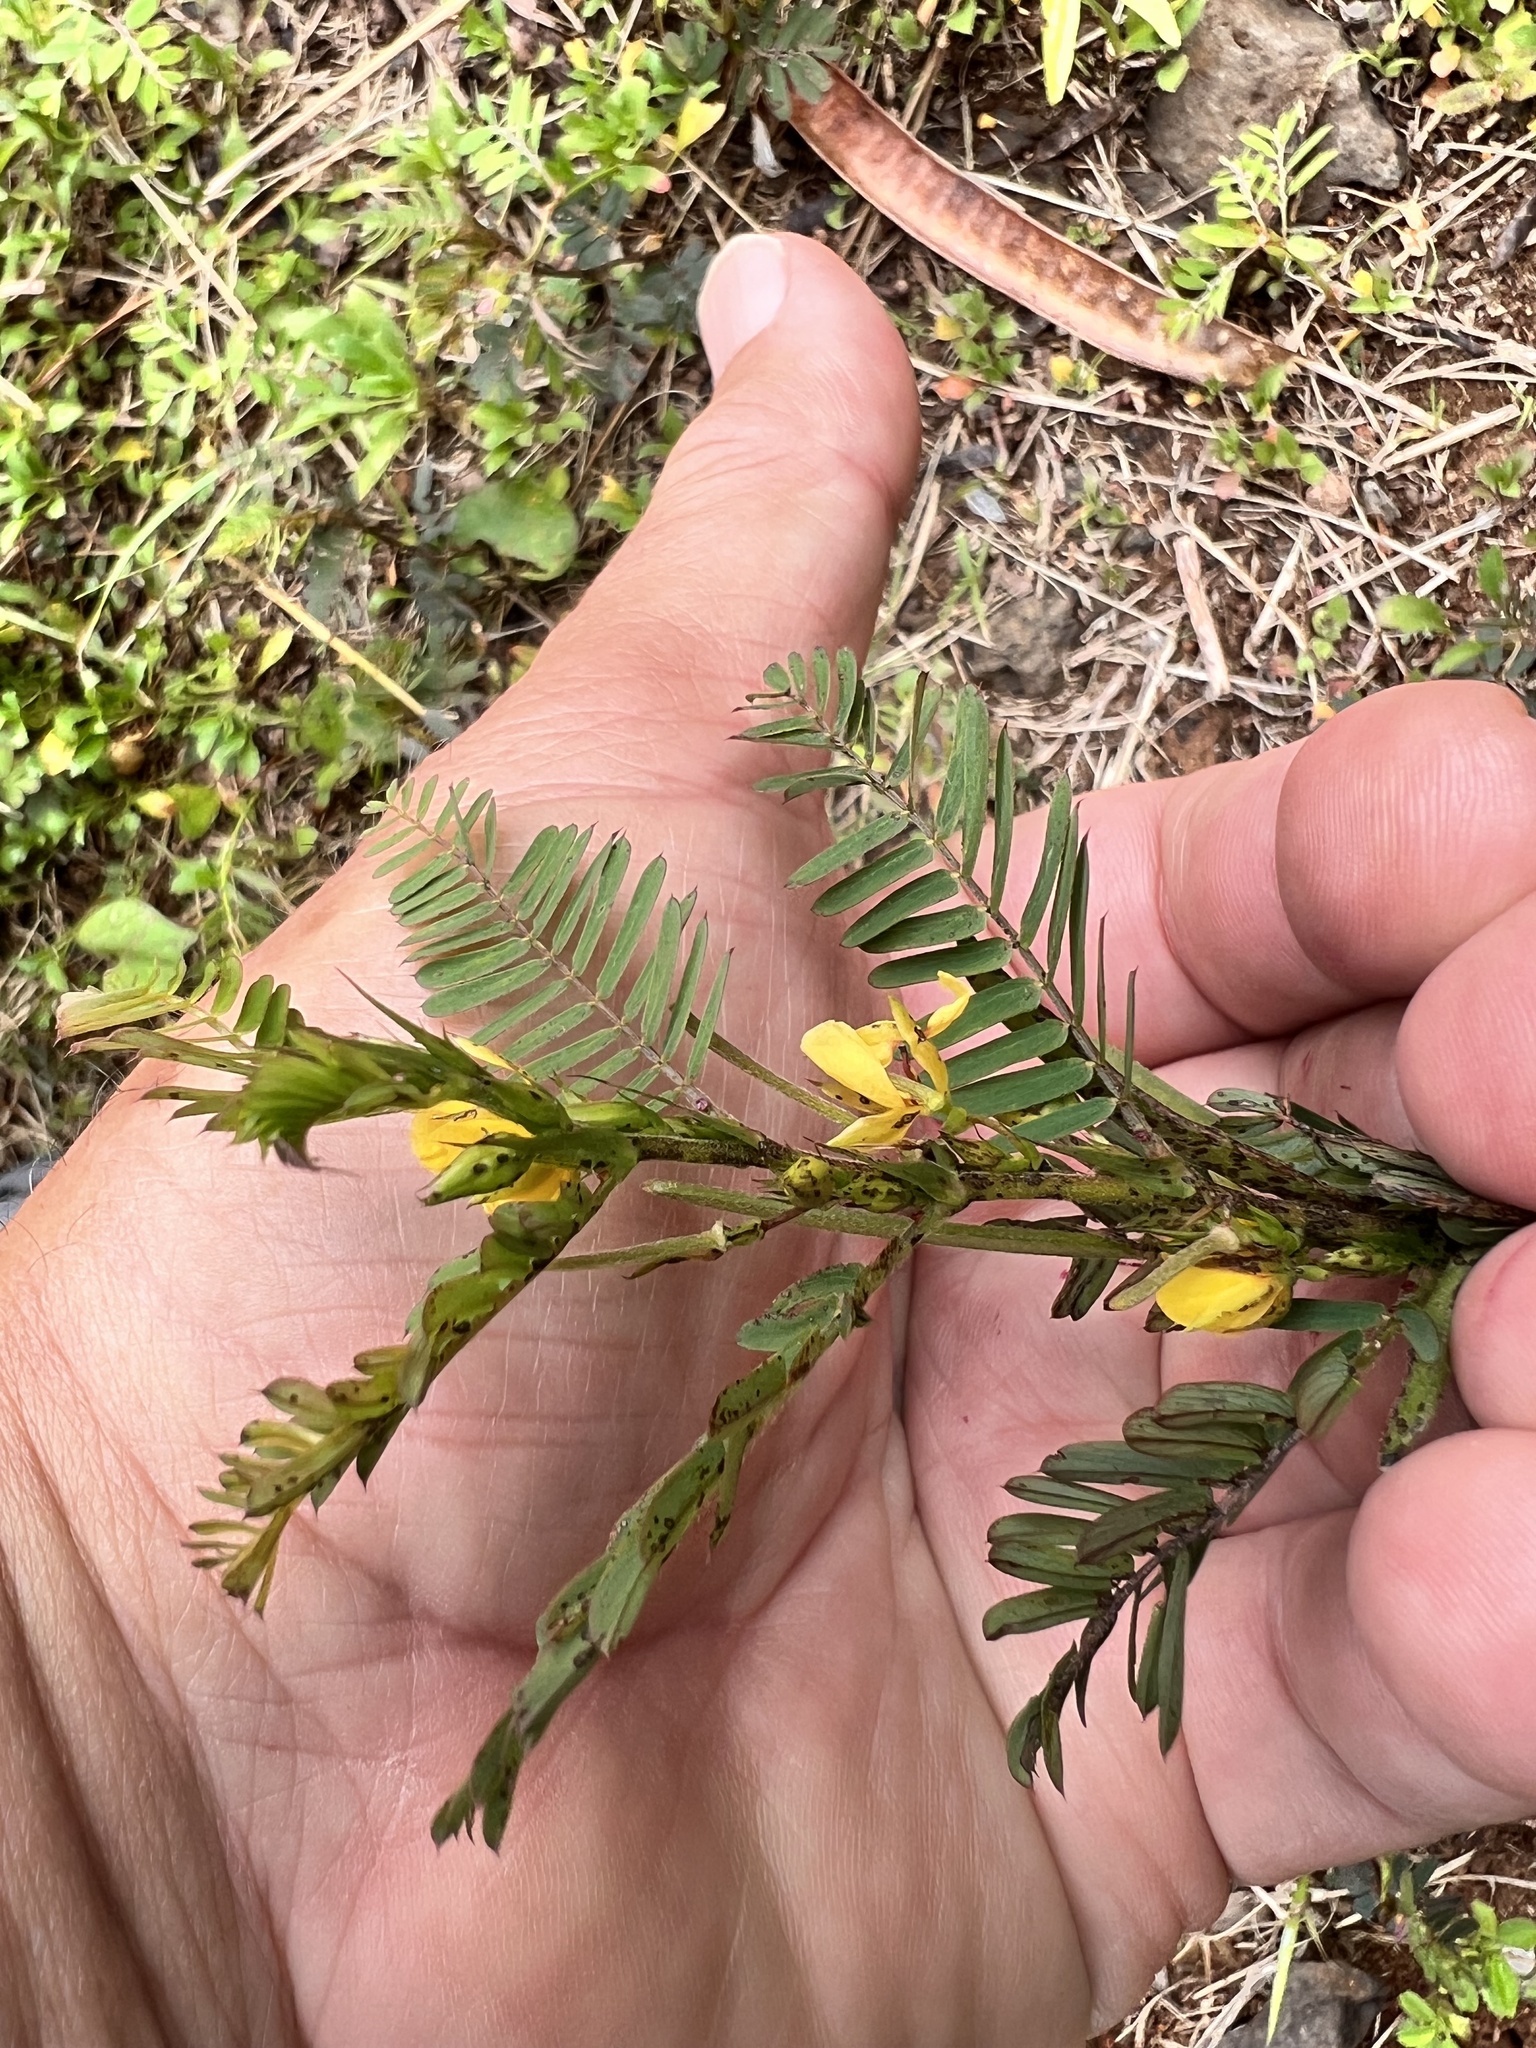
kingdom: Plantae
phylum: Tracheophyta
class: Magnoliopsida
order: Fabales
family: Fabaceae
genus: Chamaecrista
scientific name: Chamaecrista nictitans
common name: Sensitive cassia
